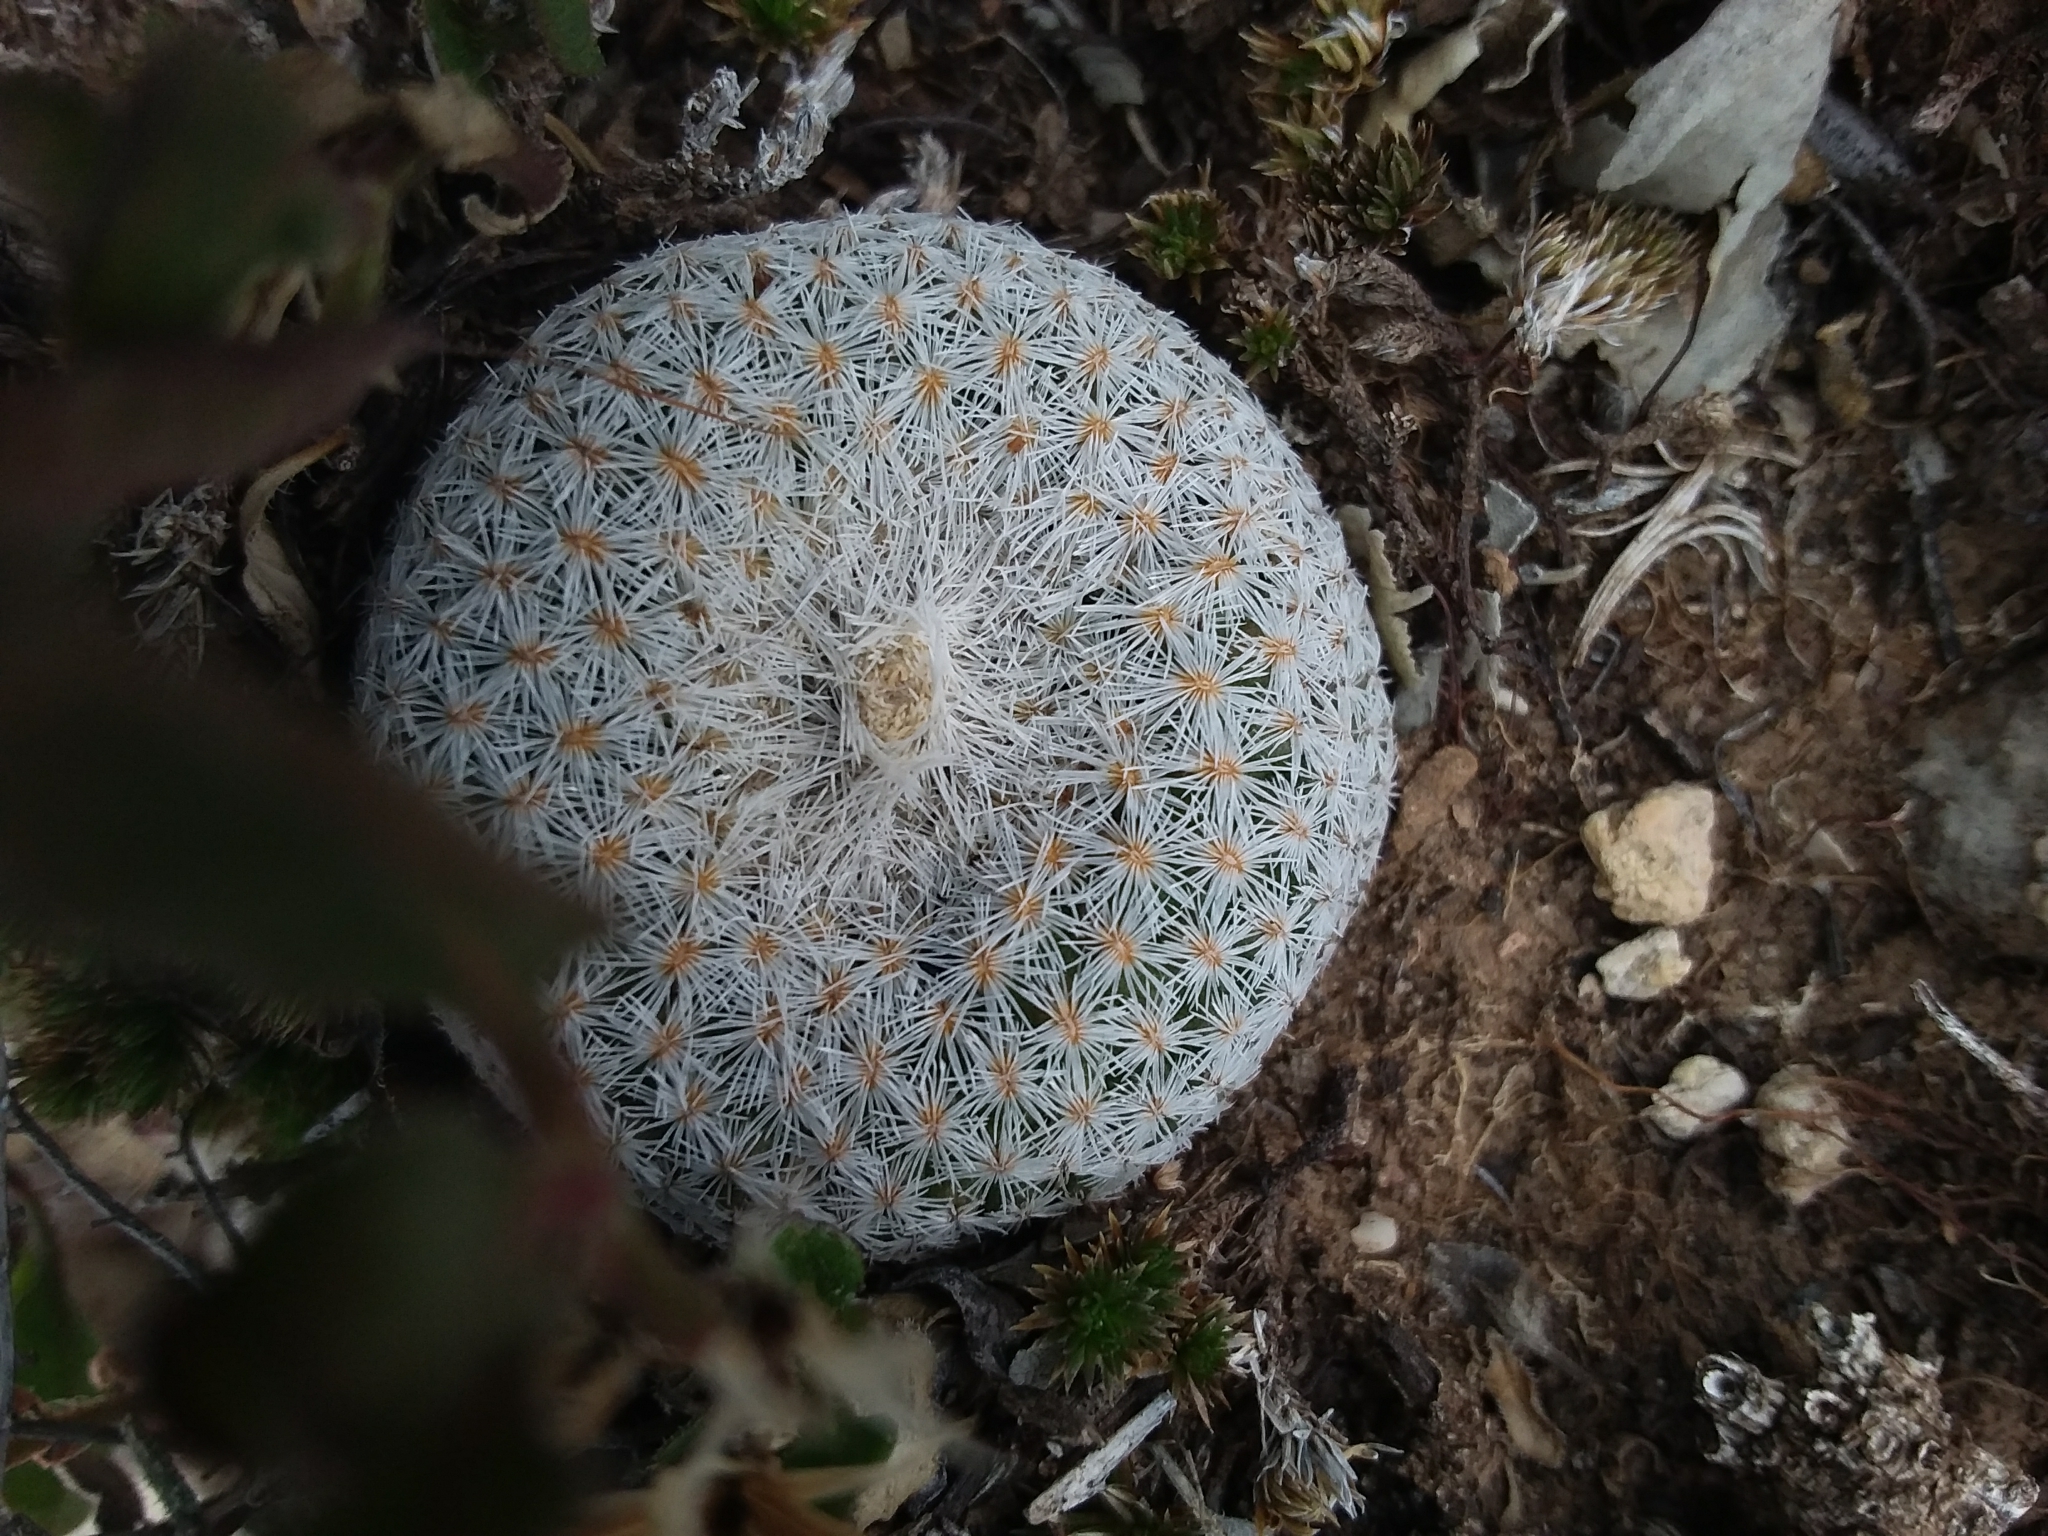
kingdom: Plantae
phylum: Tracheophyta
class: Magnoliopsida
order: Caryophyllales
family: Cactaceae
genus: Epithelantha
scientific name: Epithelantha micromeris
